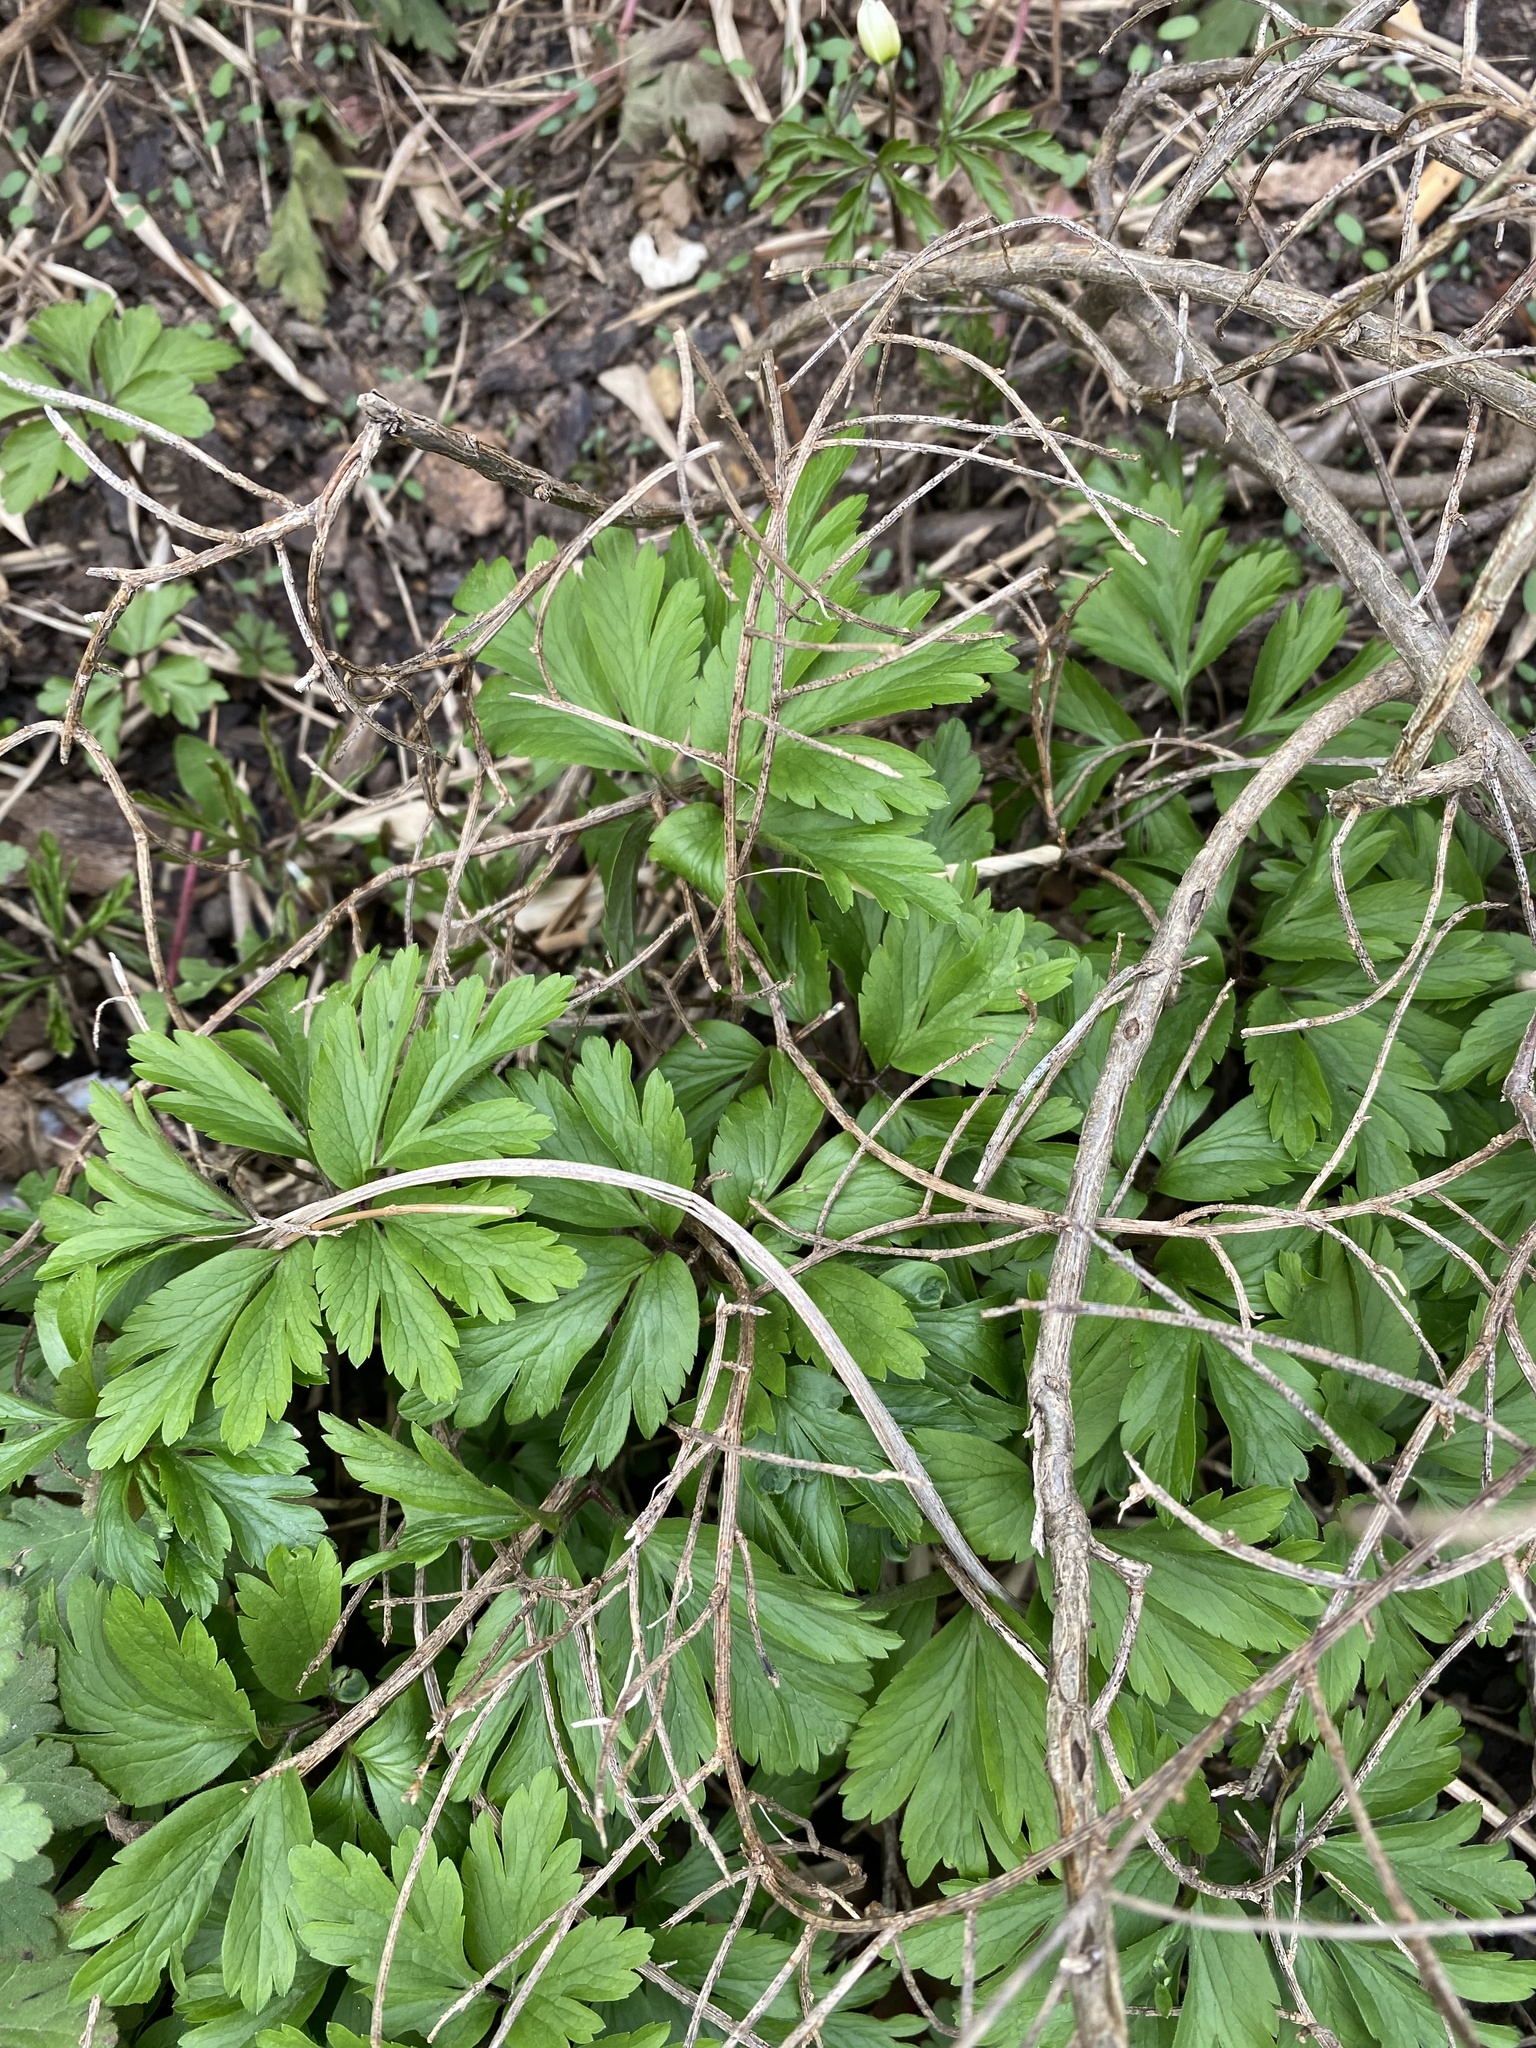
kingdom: Plantae
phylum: Tracheophyta
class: Magnoliopsida
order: Ranunculales
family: Ranunculaceae
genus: Anemone
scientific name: Anemone nemorosa
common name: Wood anemone
